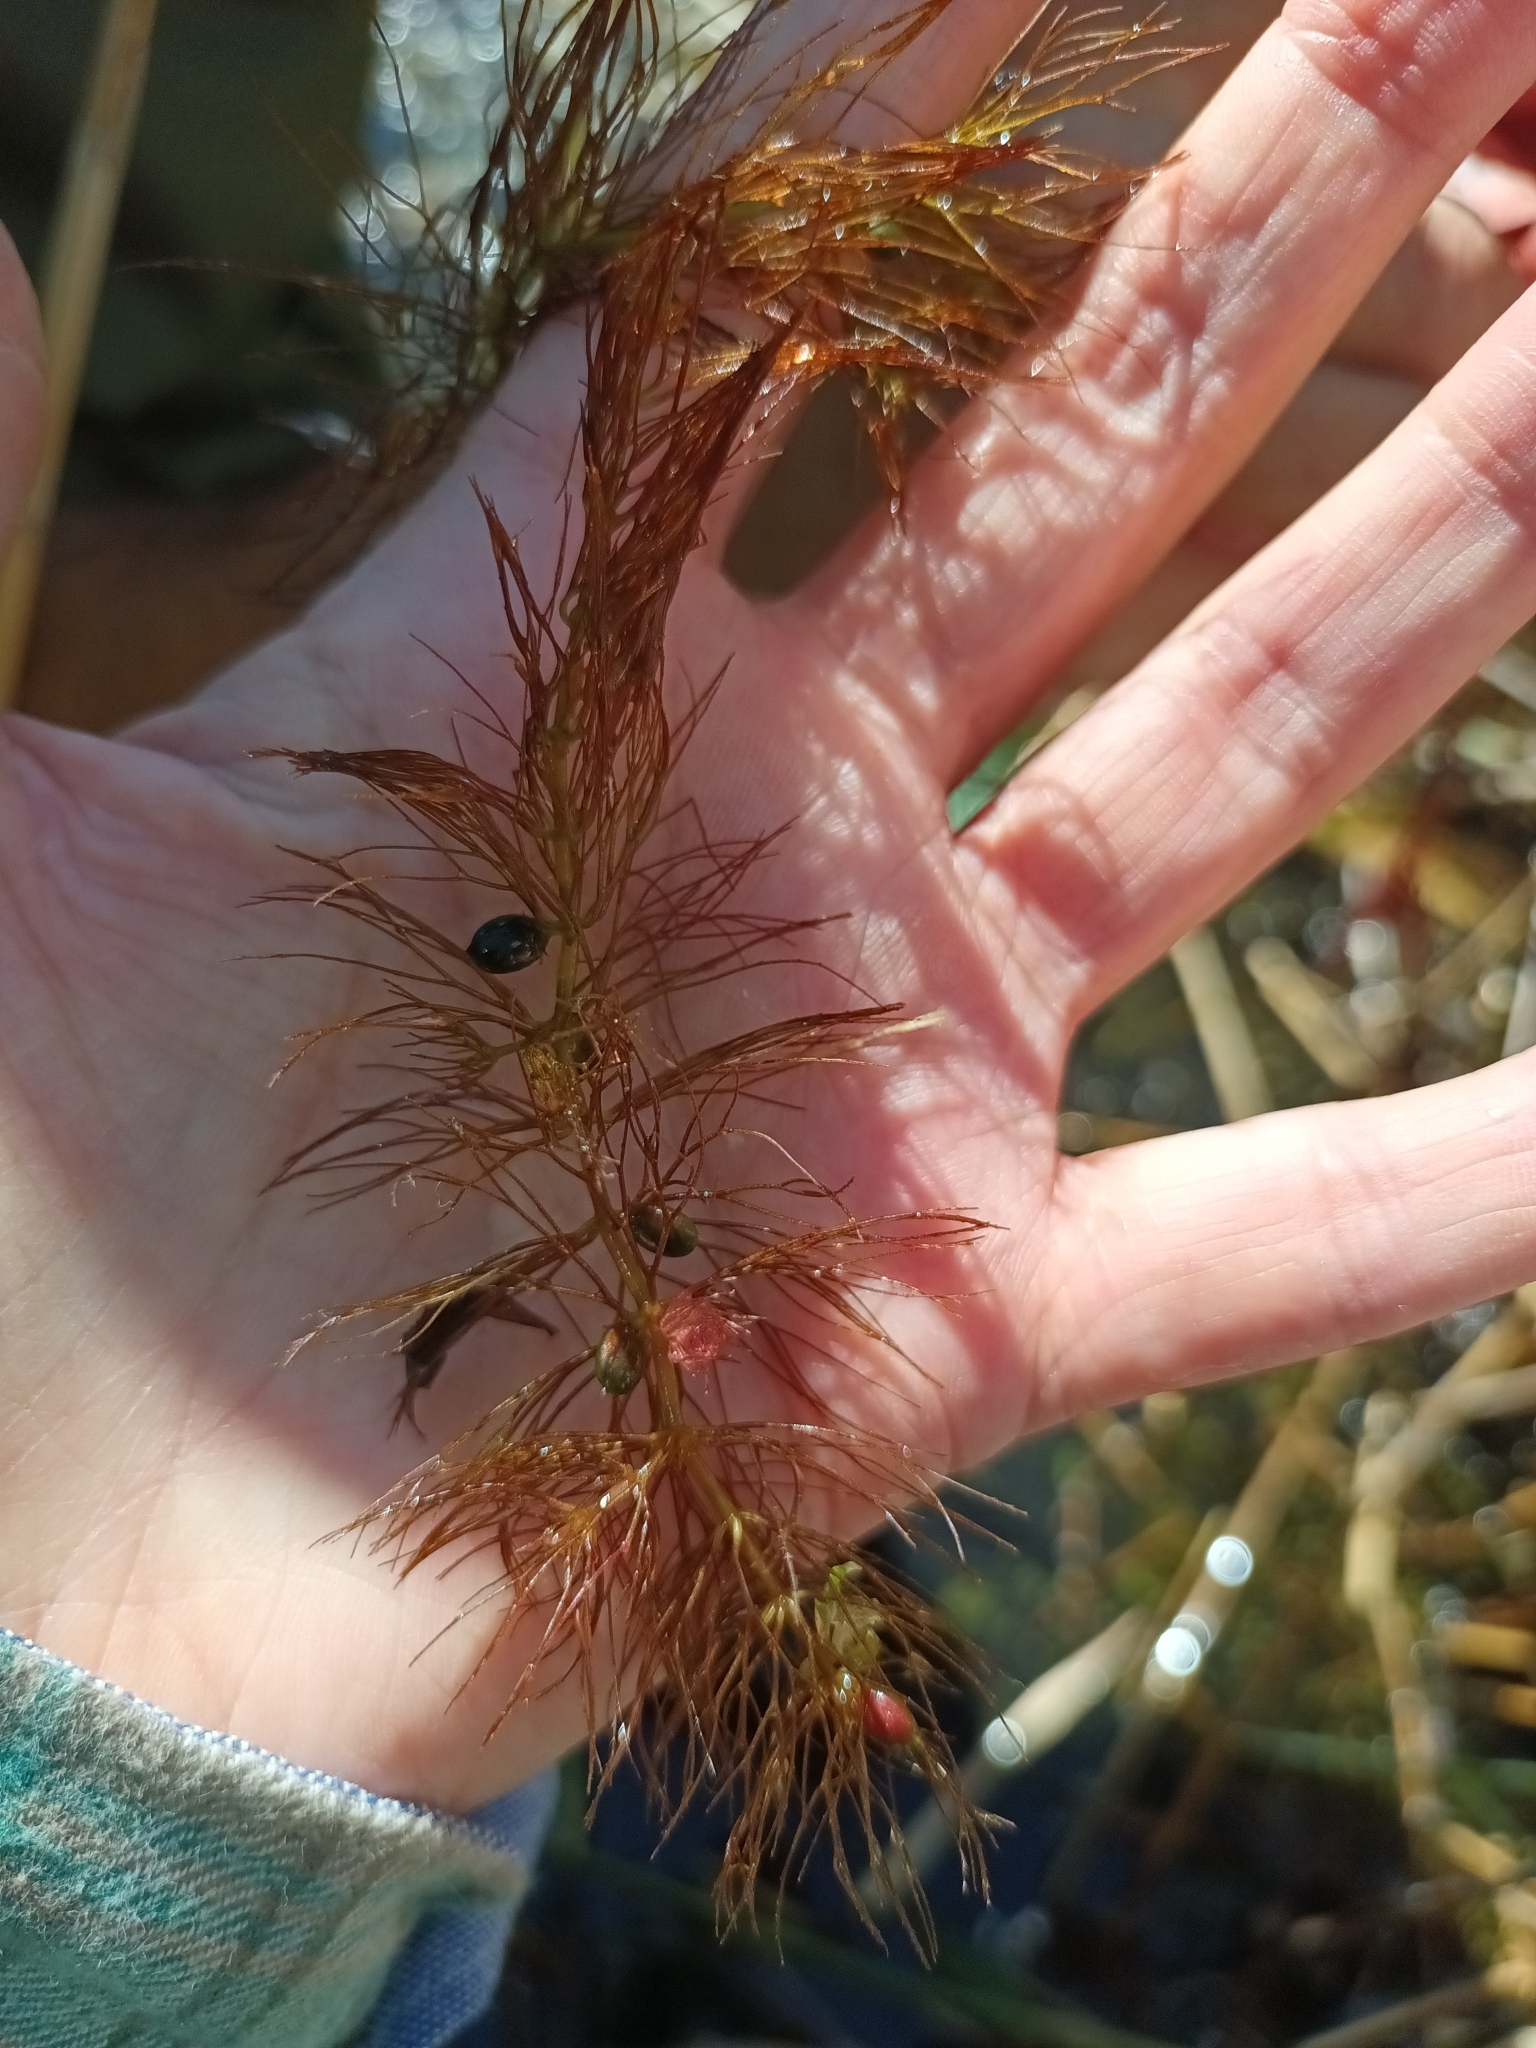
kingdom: Plantae
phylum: Tracheophyta
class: Magnoliopsida
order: Ceratophyllales
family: Ceratophyllaceae
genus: Ceratophyllum
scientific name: Ceratophyllum submersum
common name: Soft hornwort
